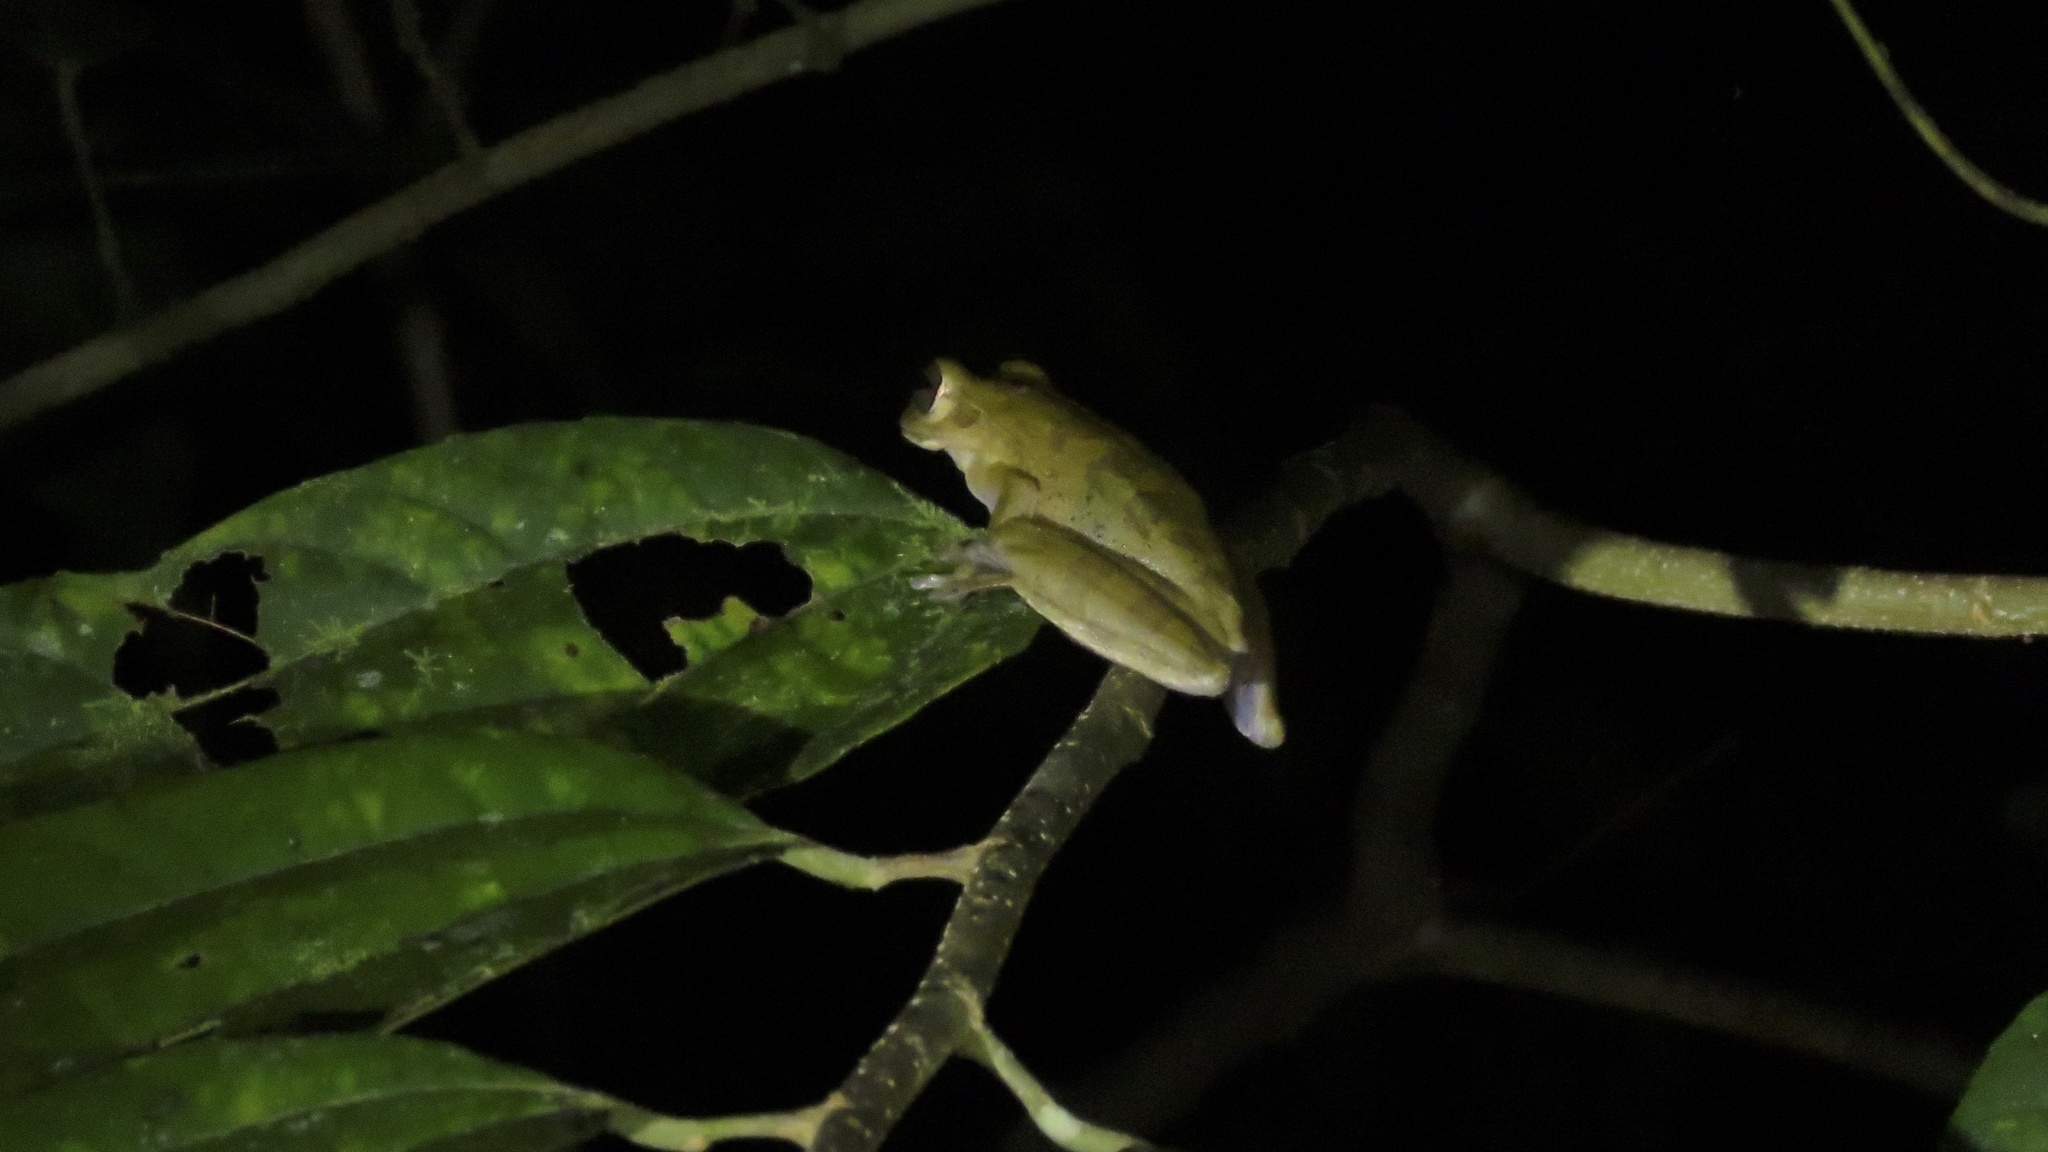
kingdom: Animalia
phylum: Chordata
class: Amphibia
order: Anura
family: Hylidae
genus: Boana
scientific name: Boana rosenbergi
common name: Rosenberg´s gladiator treefrog
